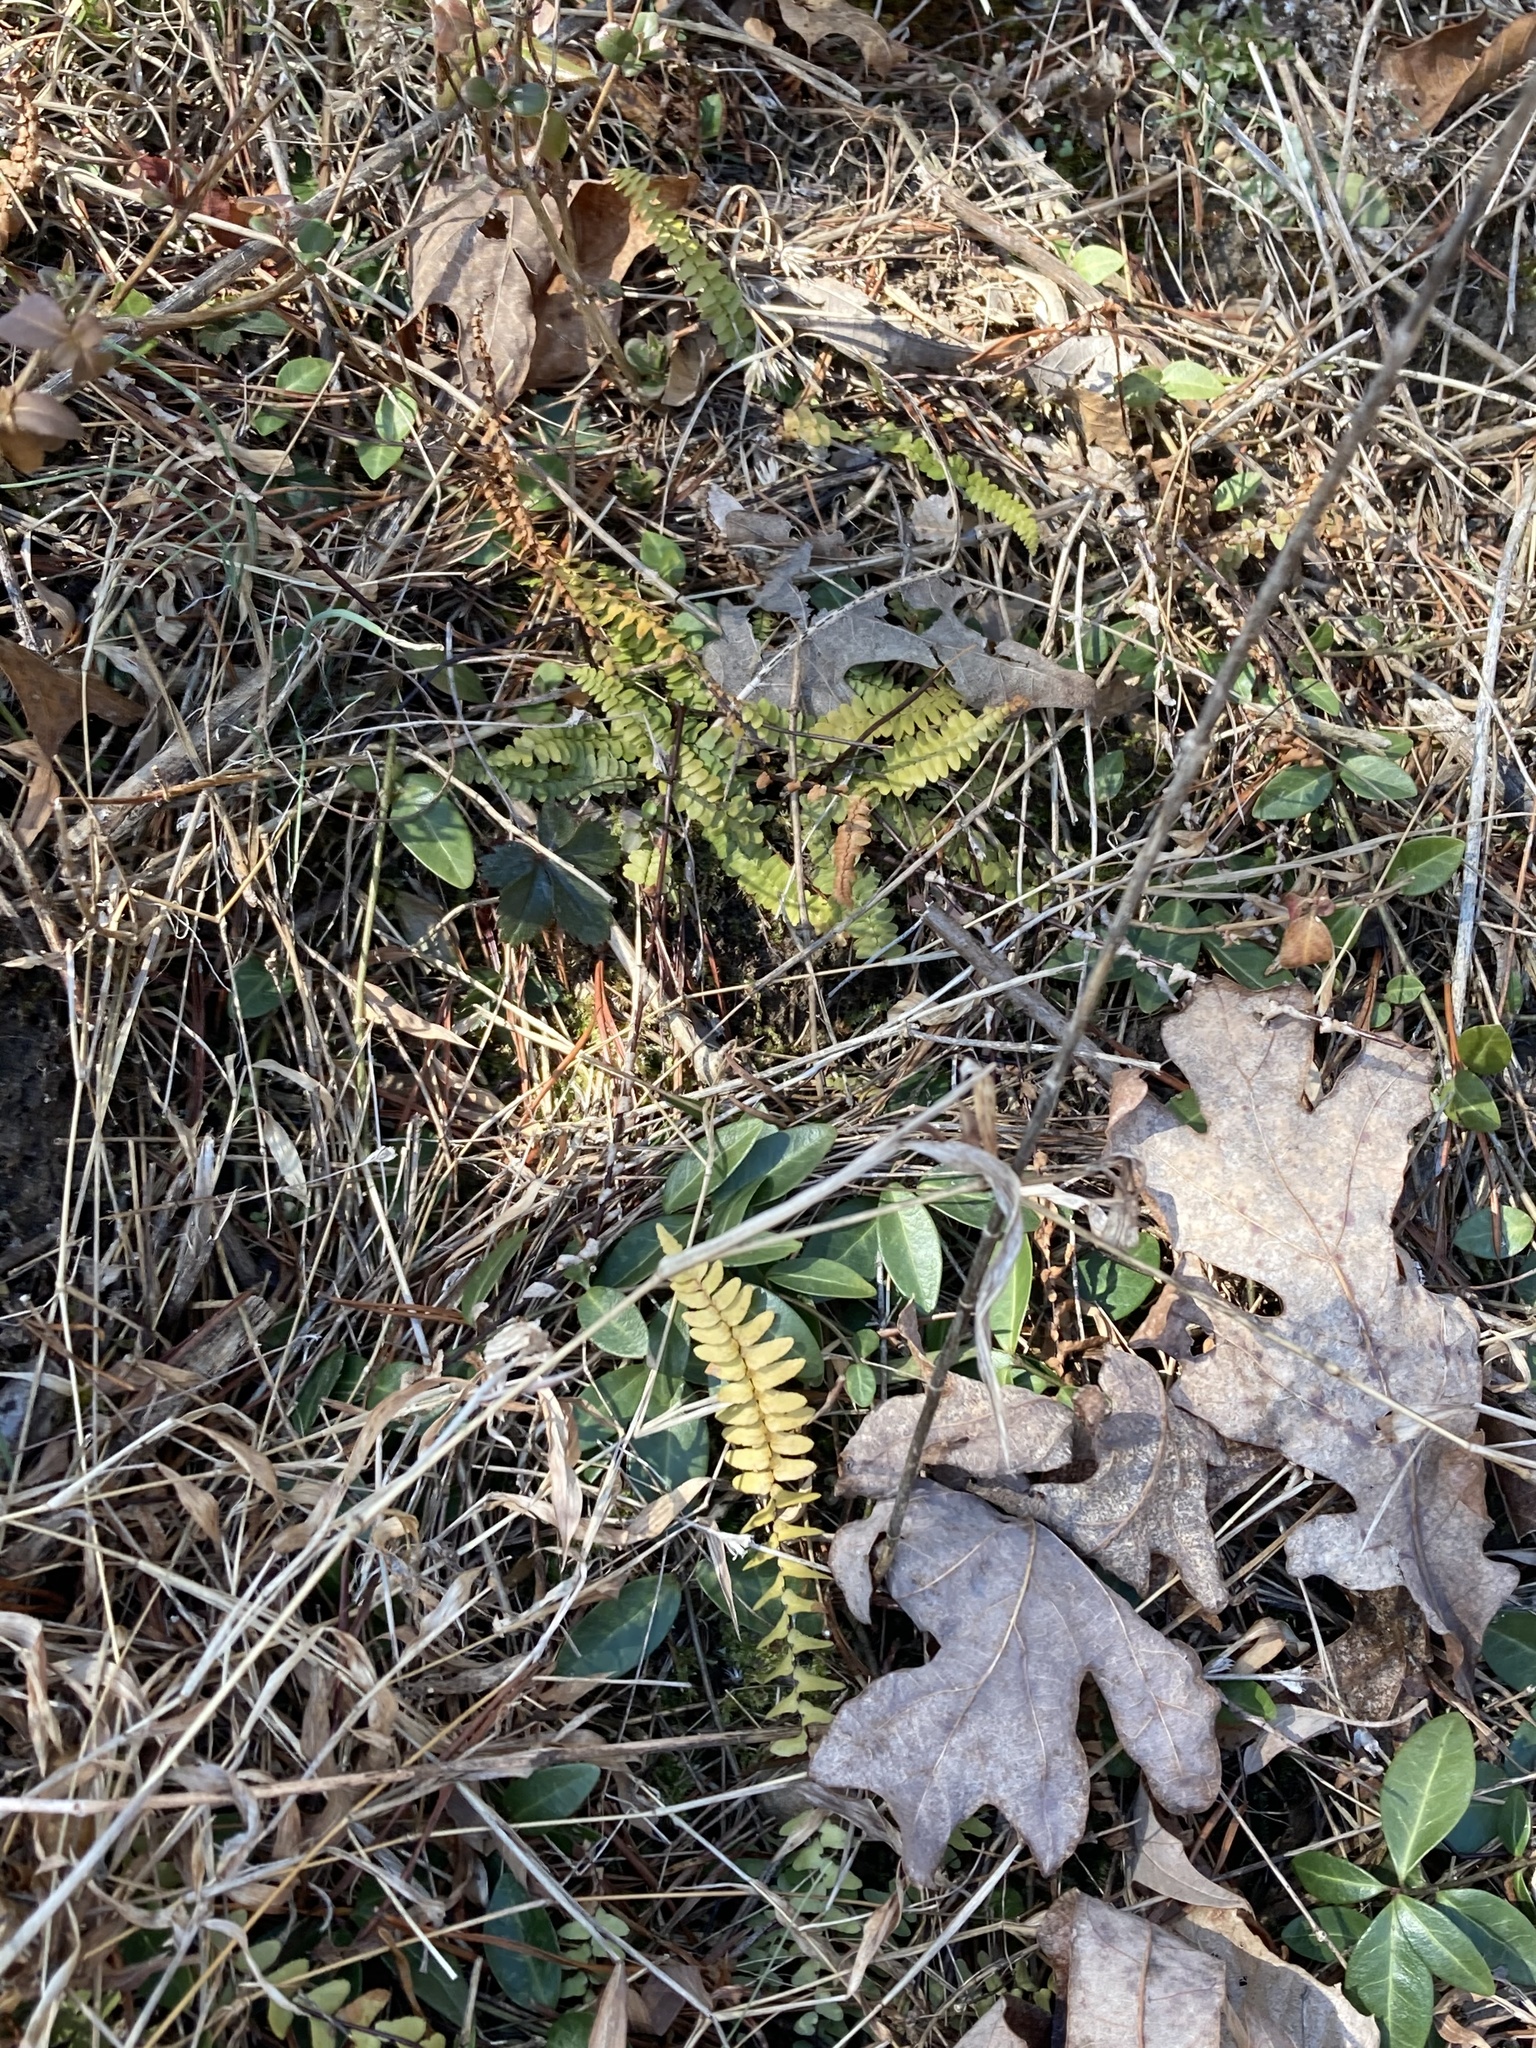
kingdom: Plantae
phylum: Tracheophyta
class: Polypodiopsida
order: Polypodiales
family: Aspleniaceae
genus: Asplenium
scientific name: Asplenium platyneuron
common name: Ebony spleenwort
